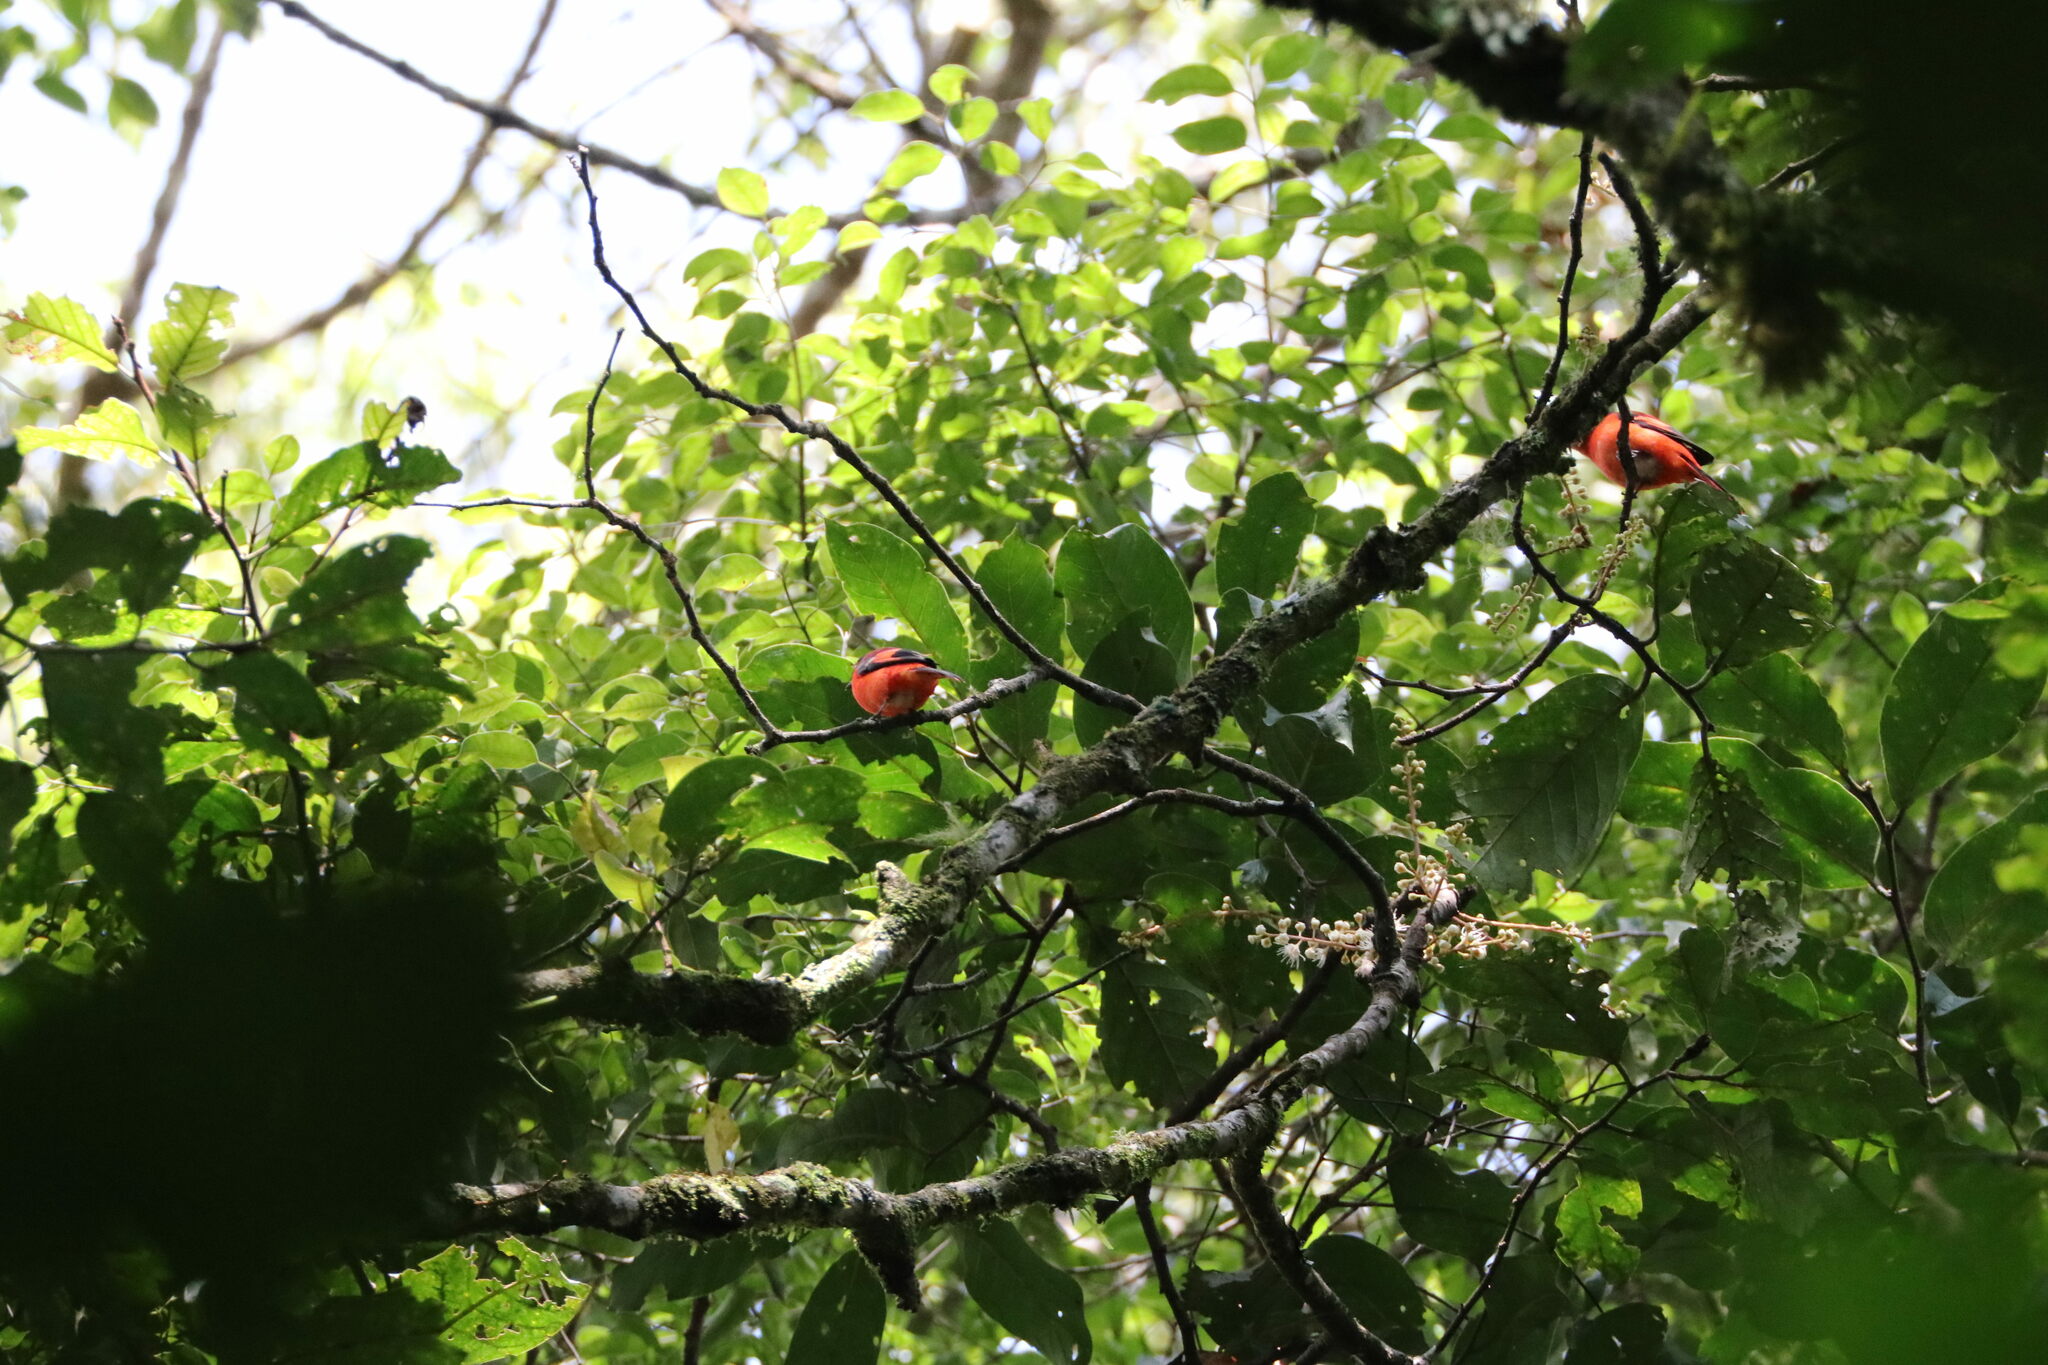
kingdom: Animalia
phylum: Chordata
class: Aves
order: Passeriformes
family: Campephagidae
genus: Pericrocotus
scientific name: Pericrocotus miniatus
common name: Sunda minivet
